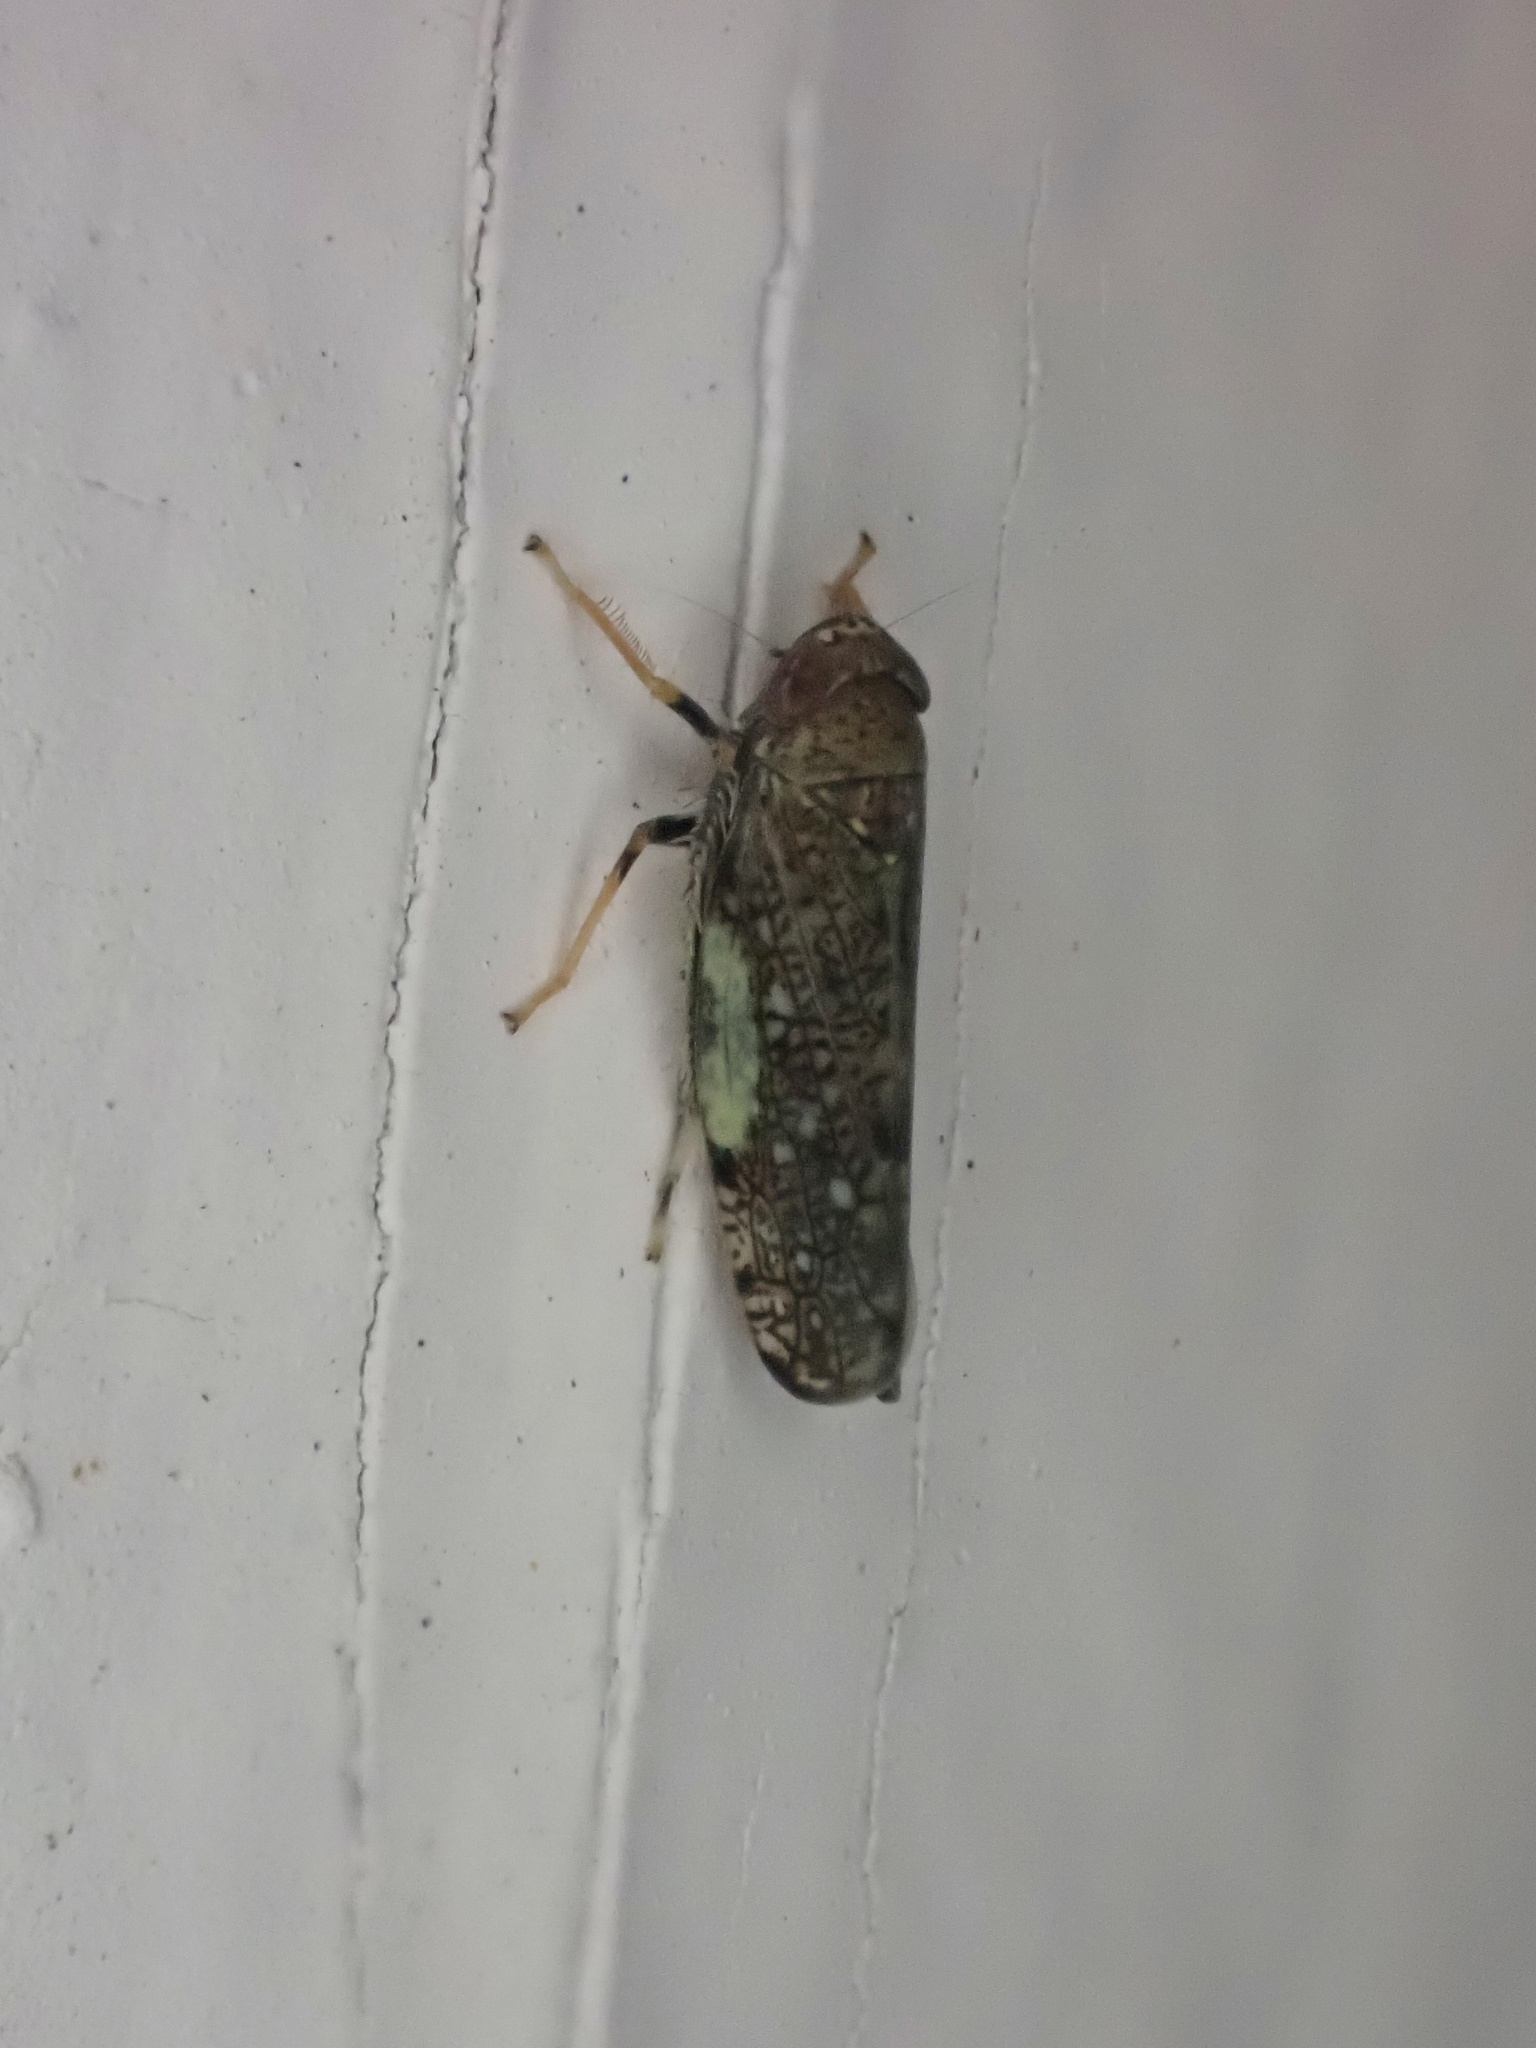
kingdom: Animalia
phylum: Arthropoda
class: Insecta
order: Hemiptera
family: Cicadellidae
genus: Orientus
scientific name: Orientus ishidae
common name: Japanese leafhopper
